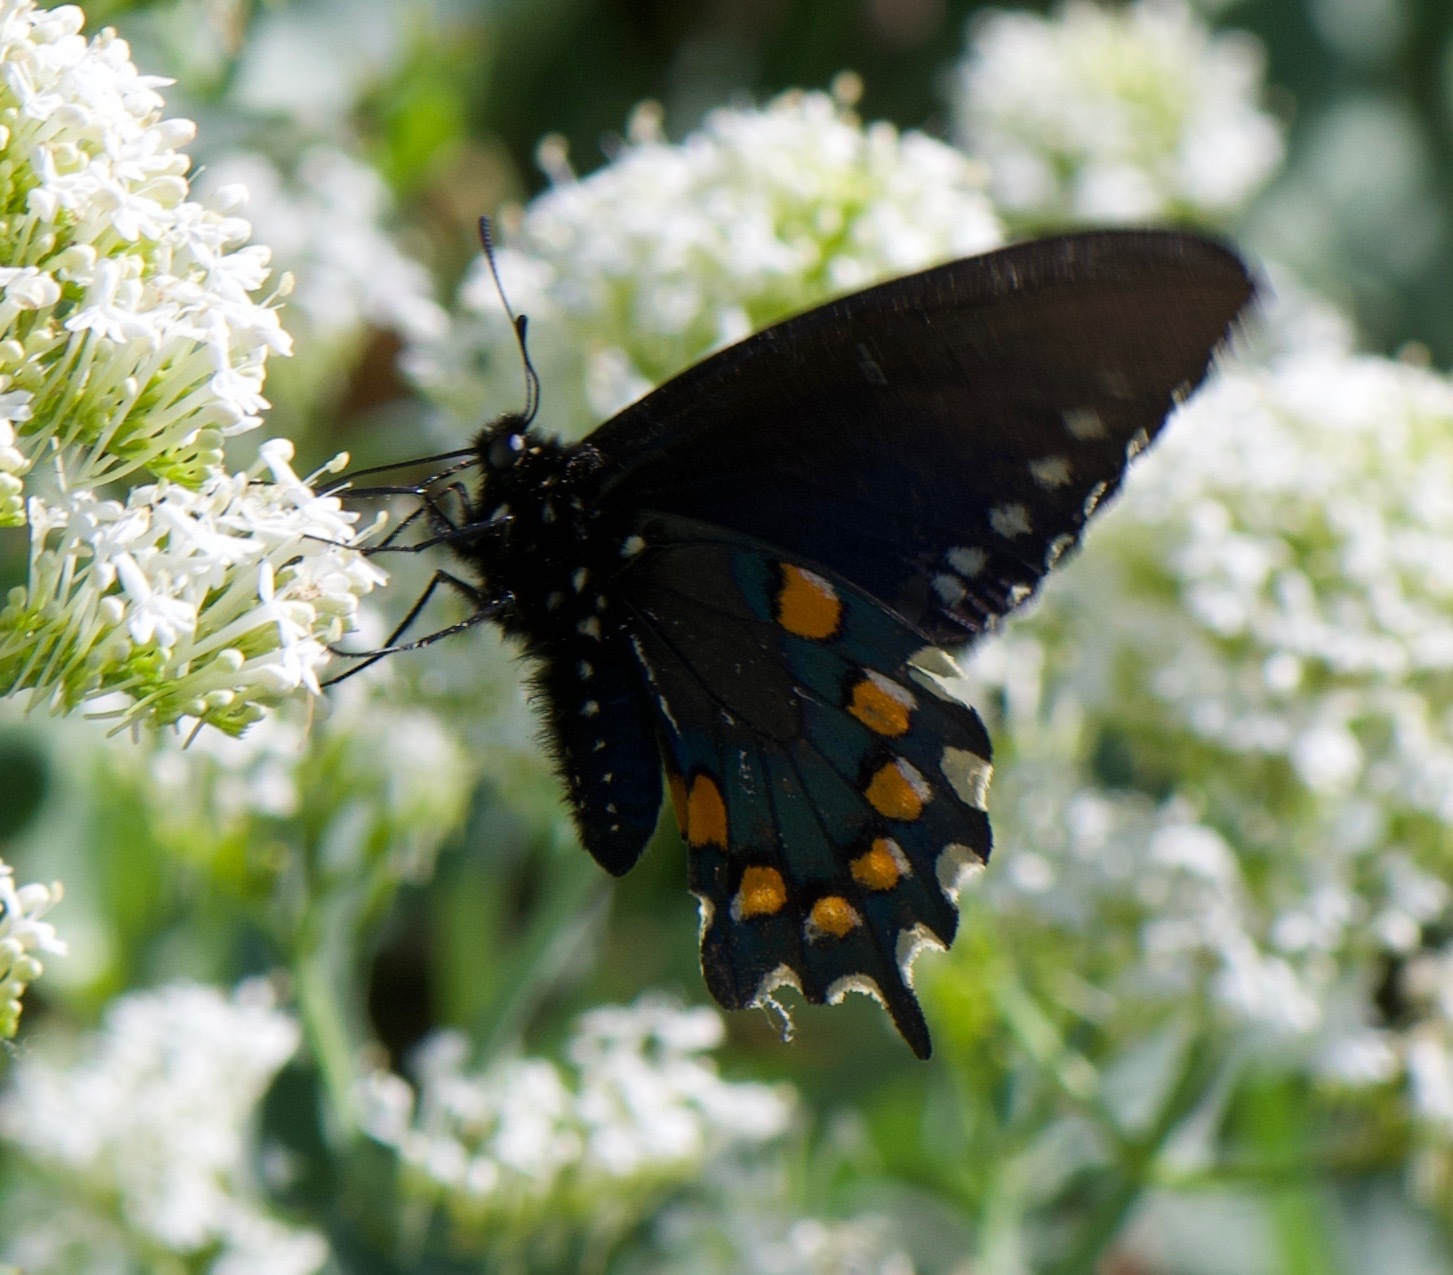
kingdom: Animalia
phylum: Arthropoda
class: Insecta
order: Lepidoptera
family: Papilionidae
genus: Battus
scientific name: Battus philenor
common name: Pipevine swallowtail
